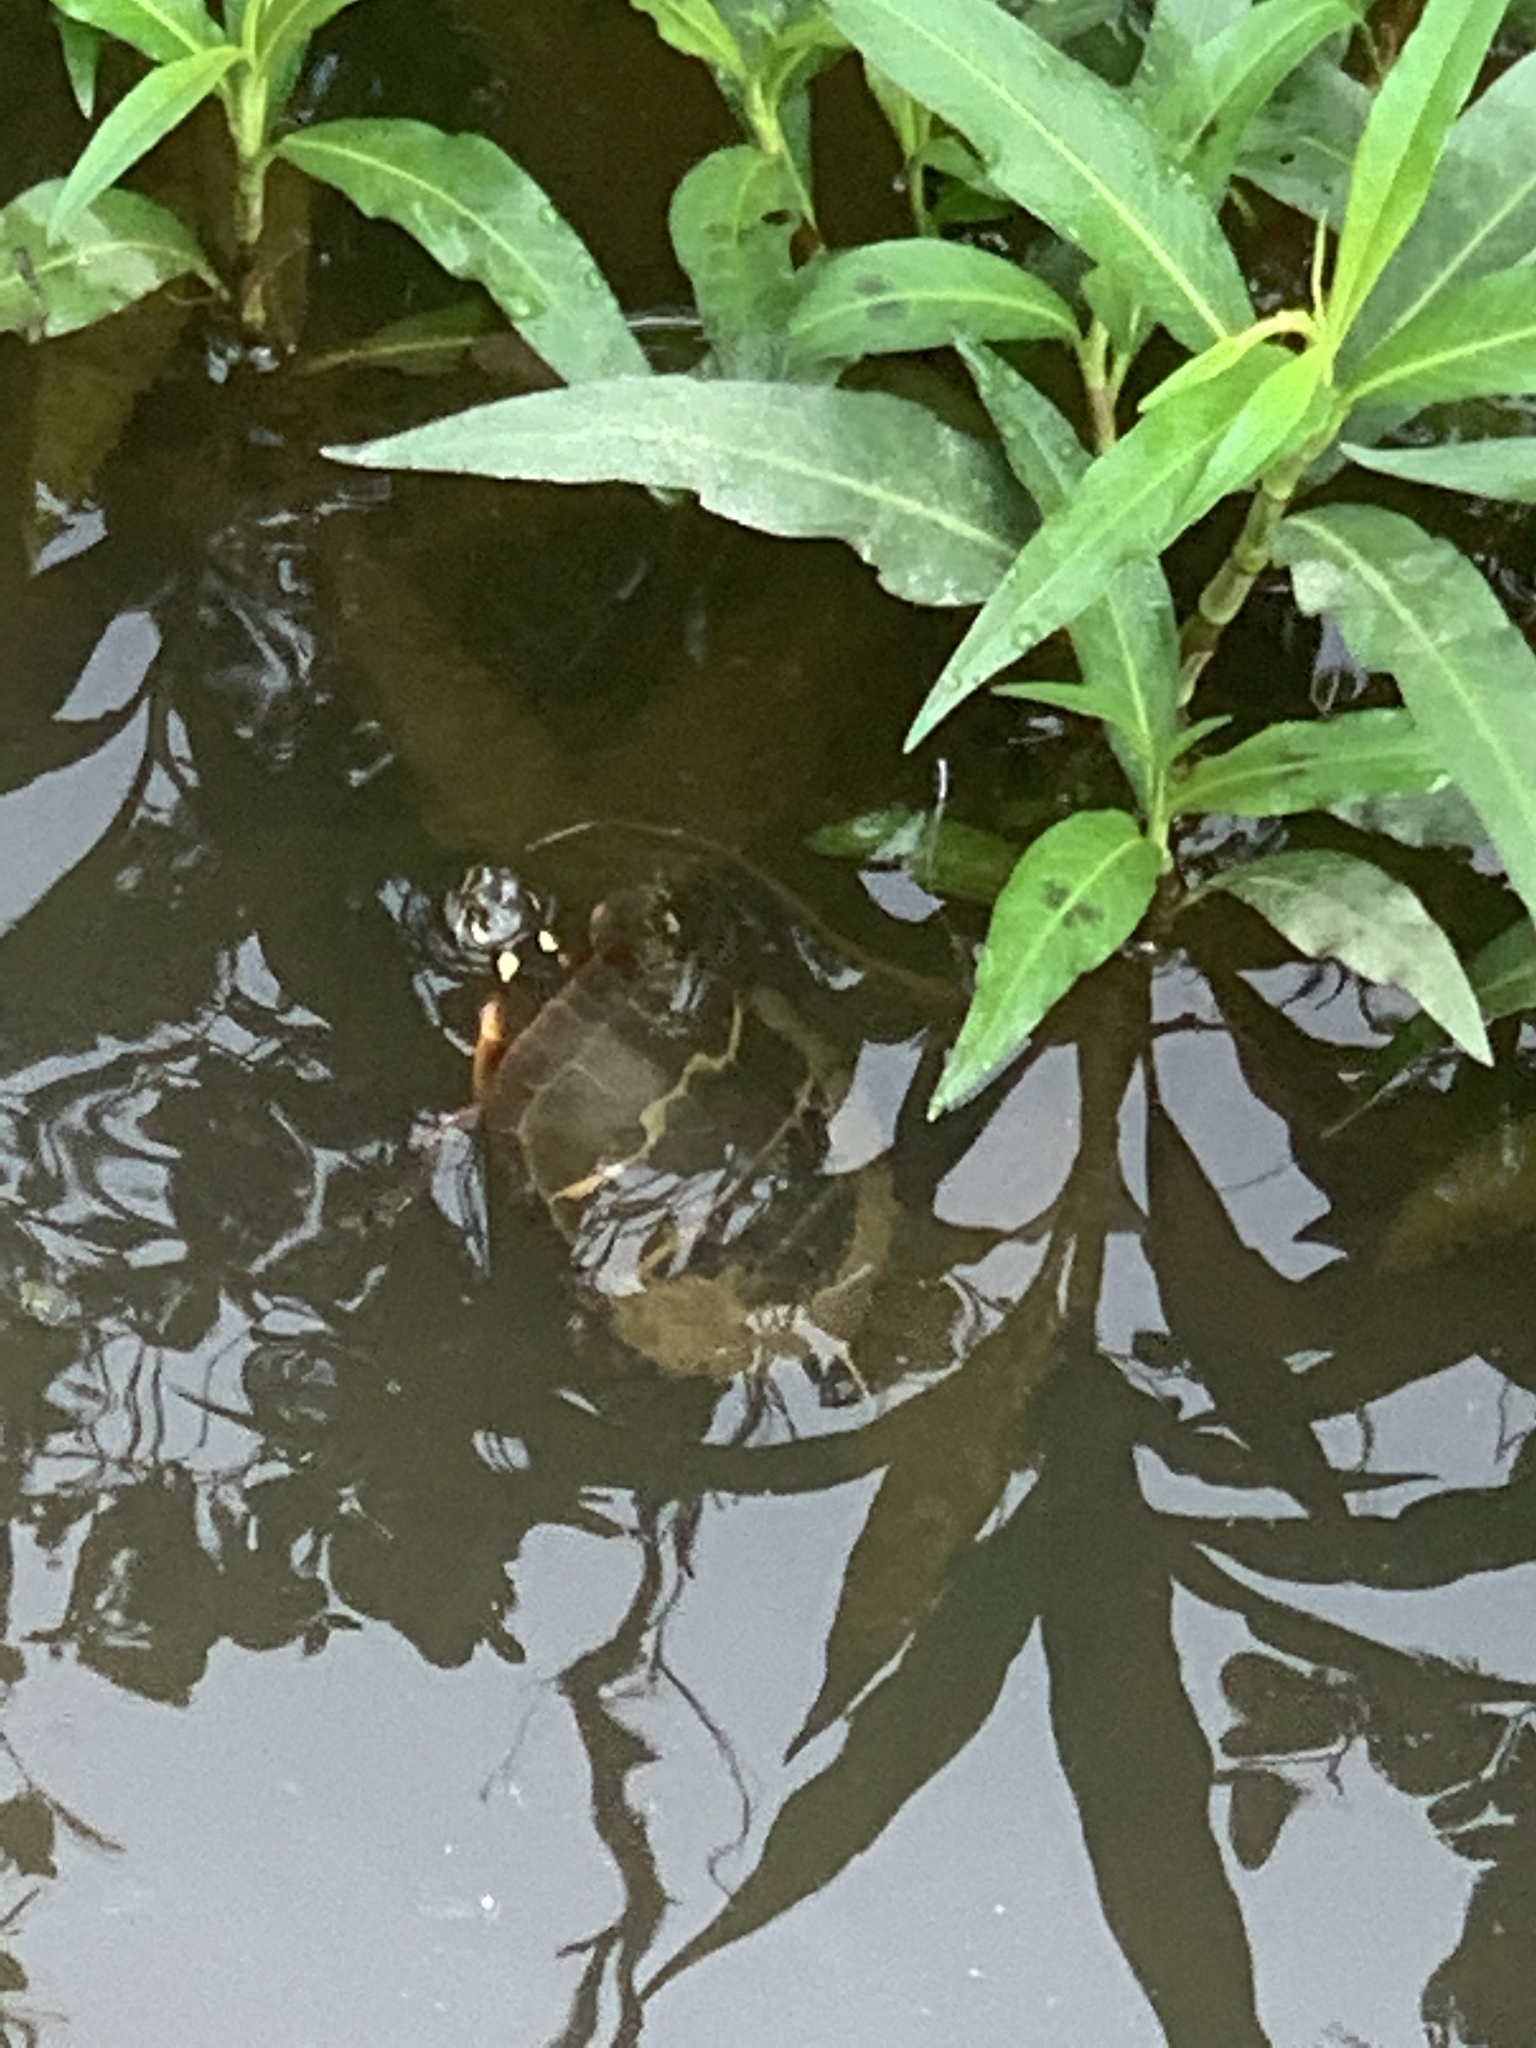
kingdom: Animalia
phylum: Chordata
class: Testudines
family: Emydidae
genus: Chrysemys
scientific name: Chrysemys picta
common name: Painted turtle
